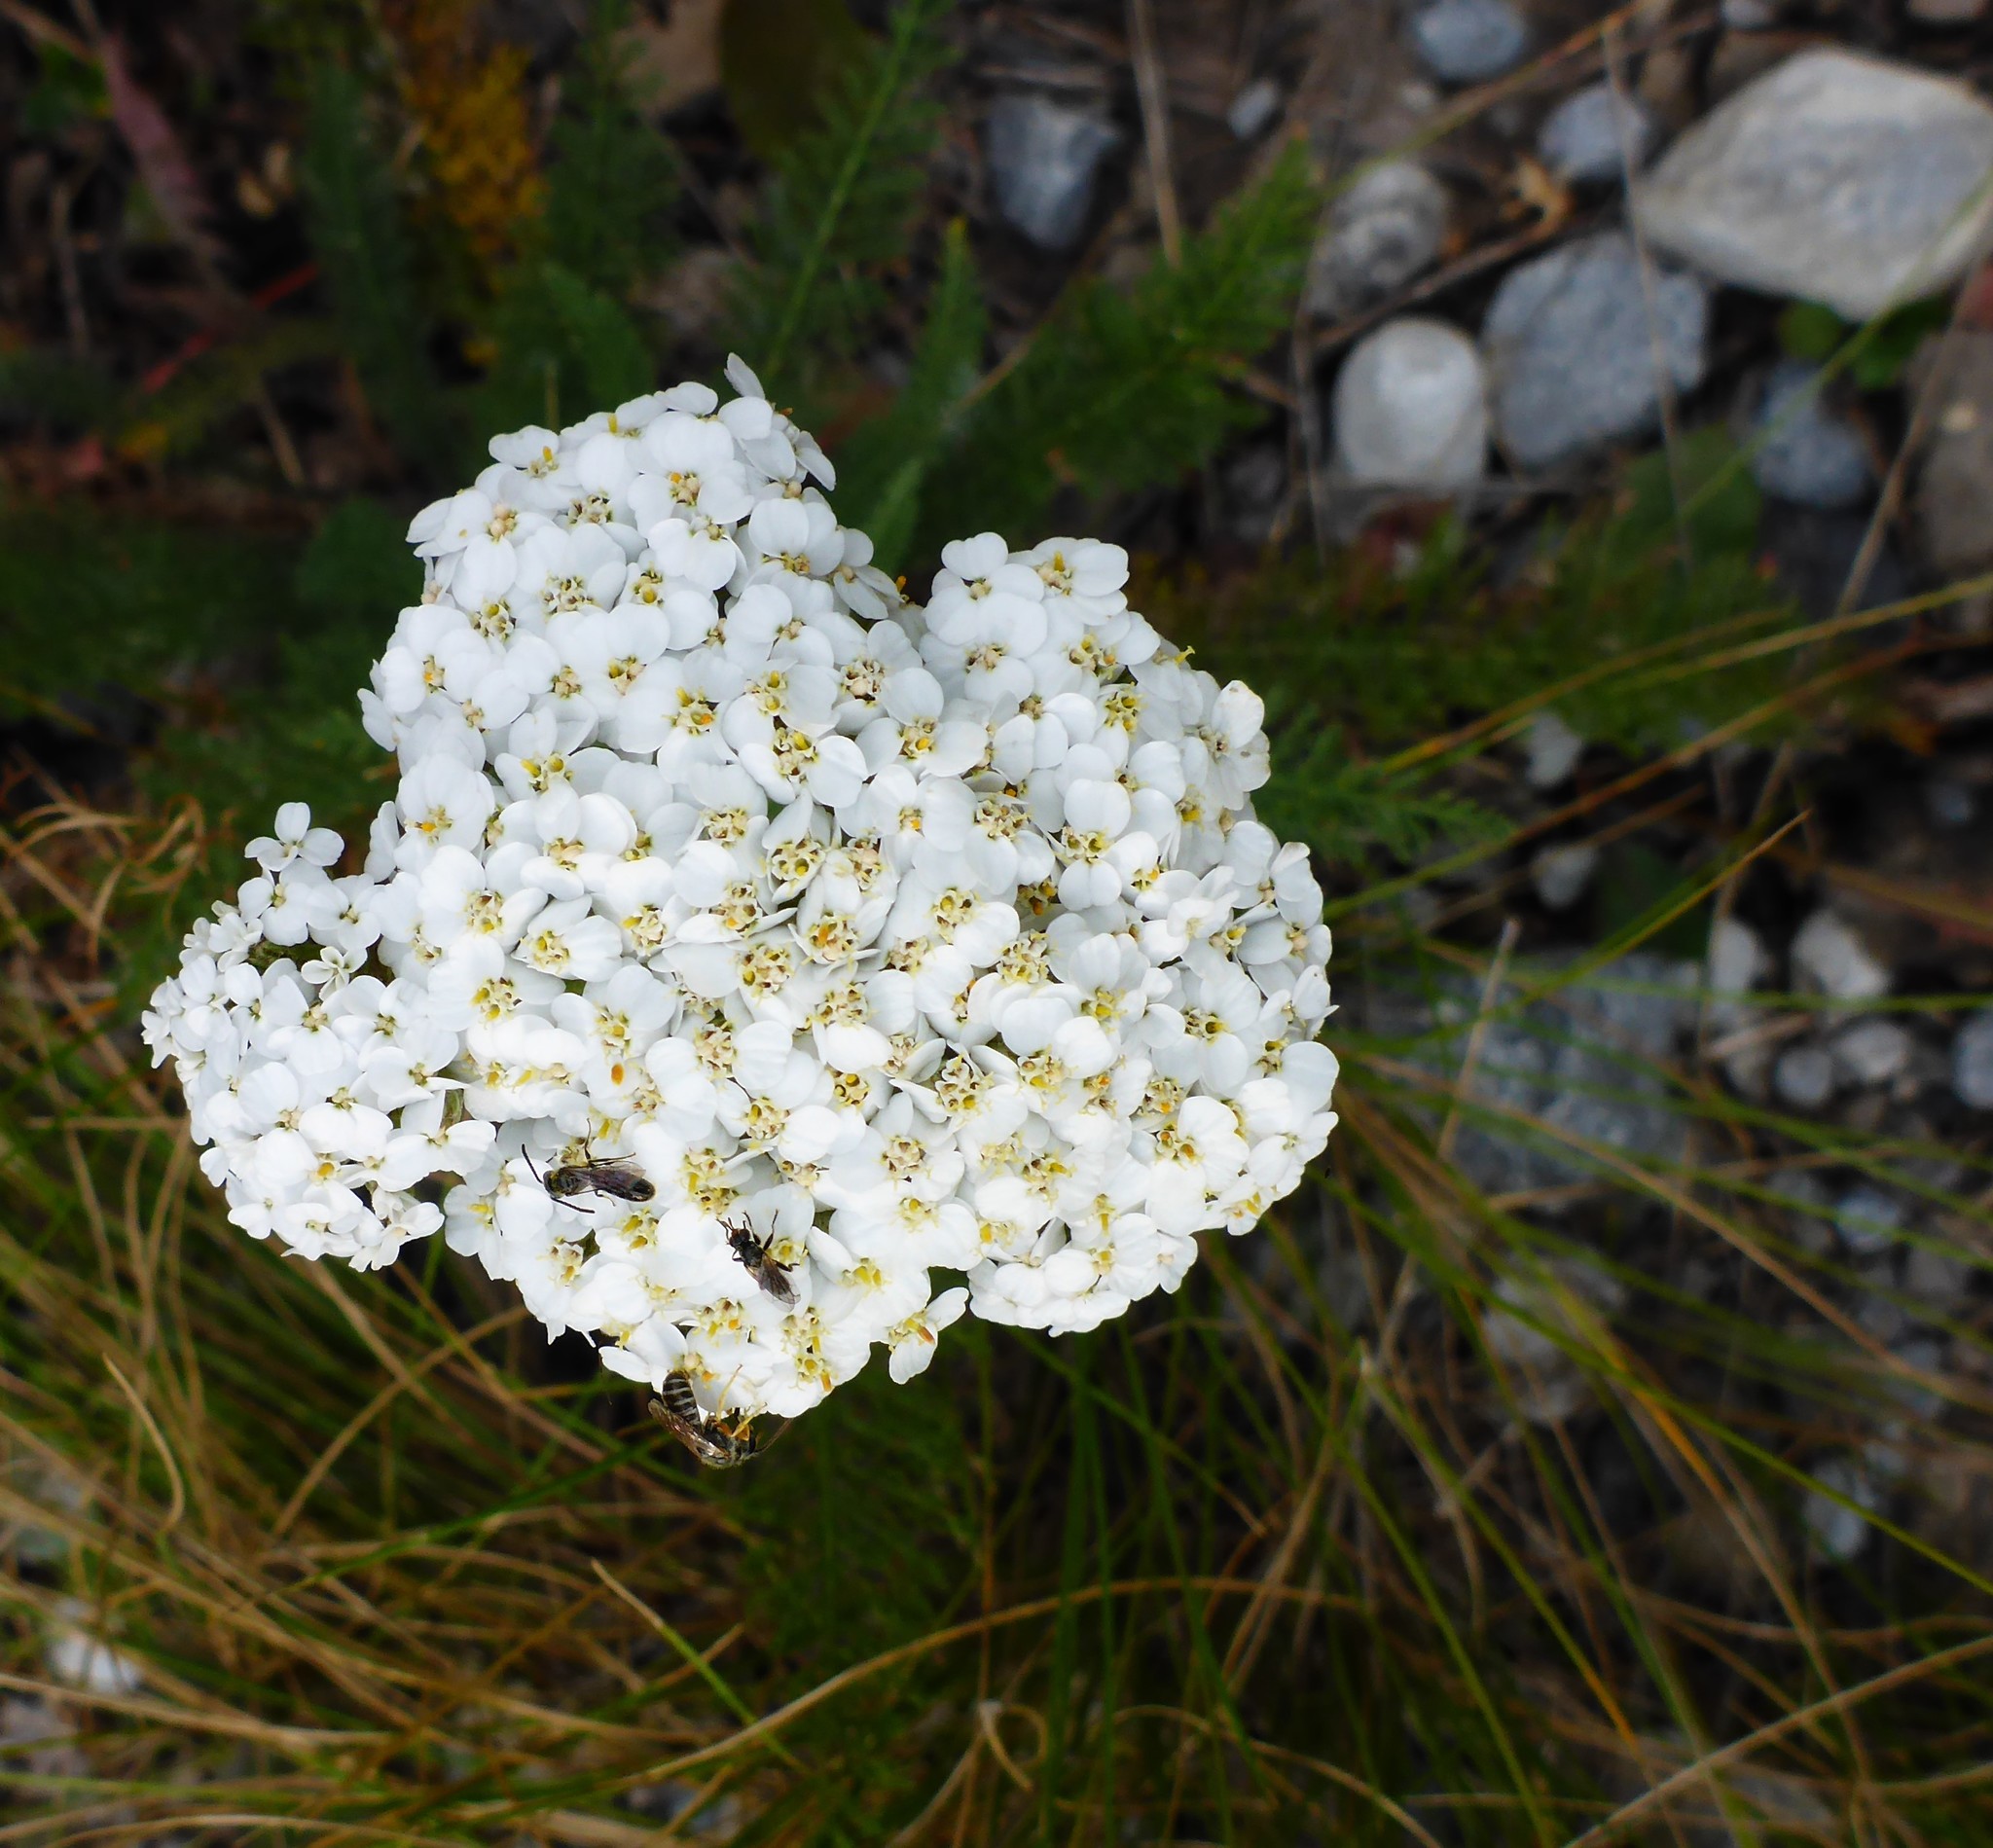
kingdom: Plantae
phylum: Tracheophyta
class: Magnoliopsida
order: Asterales
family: Asteraceae
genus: Achillea
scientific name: Achillea millefolium
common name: Yarrow
